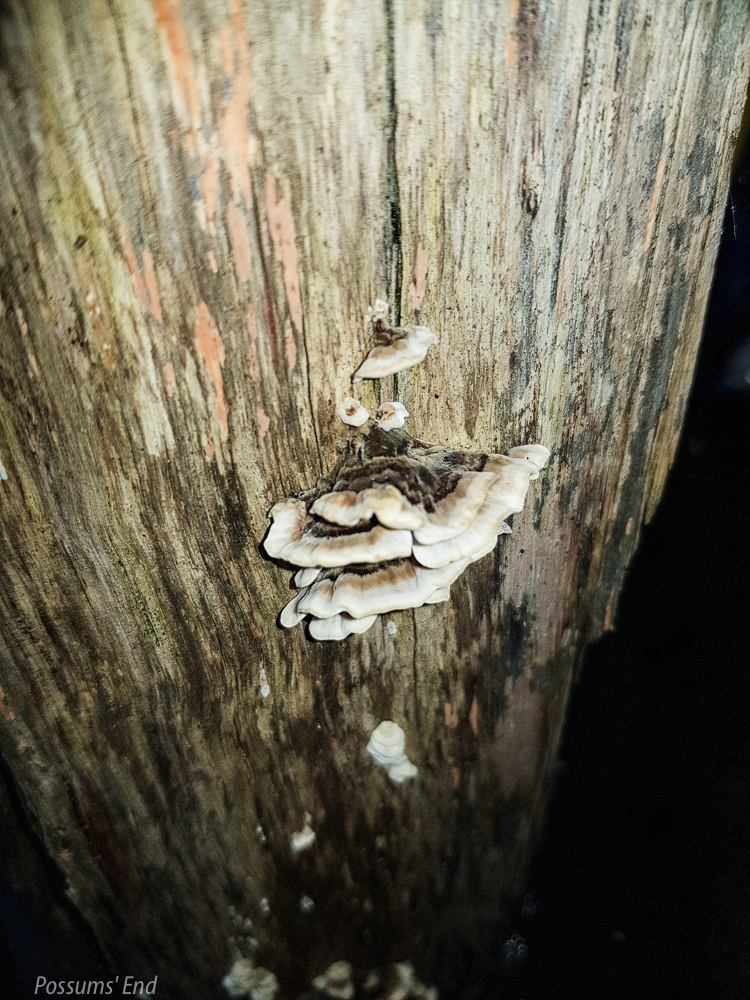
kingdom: Fungi
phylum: Basidiomycota
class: Agaricomycetes
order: Polyporales
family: Polyporaceae
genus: Trametes
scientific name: Trametes versicolor
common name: Turkeytail
